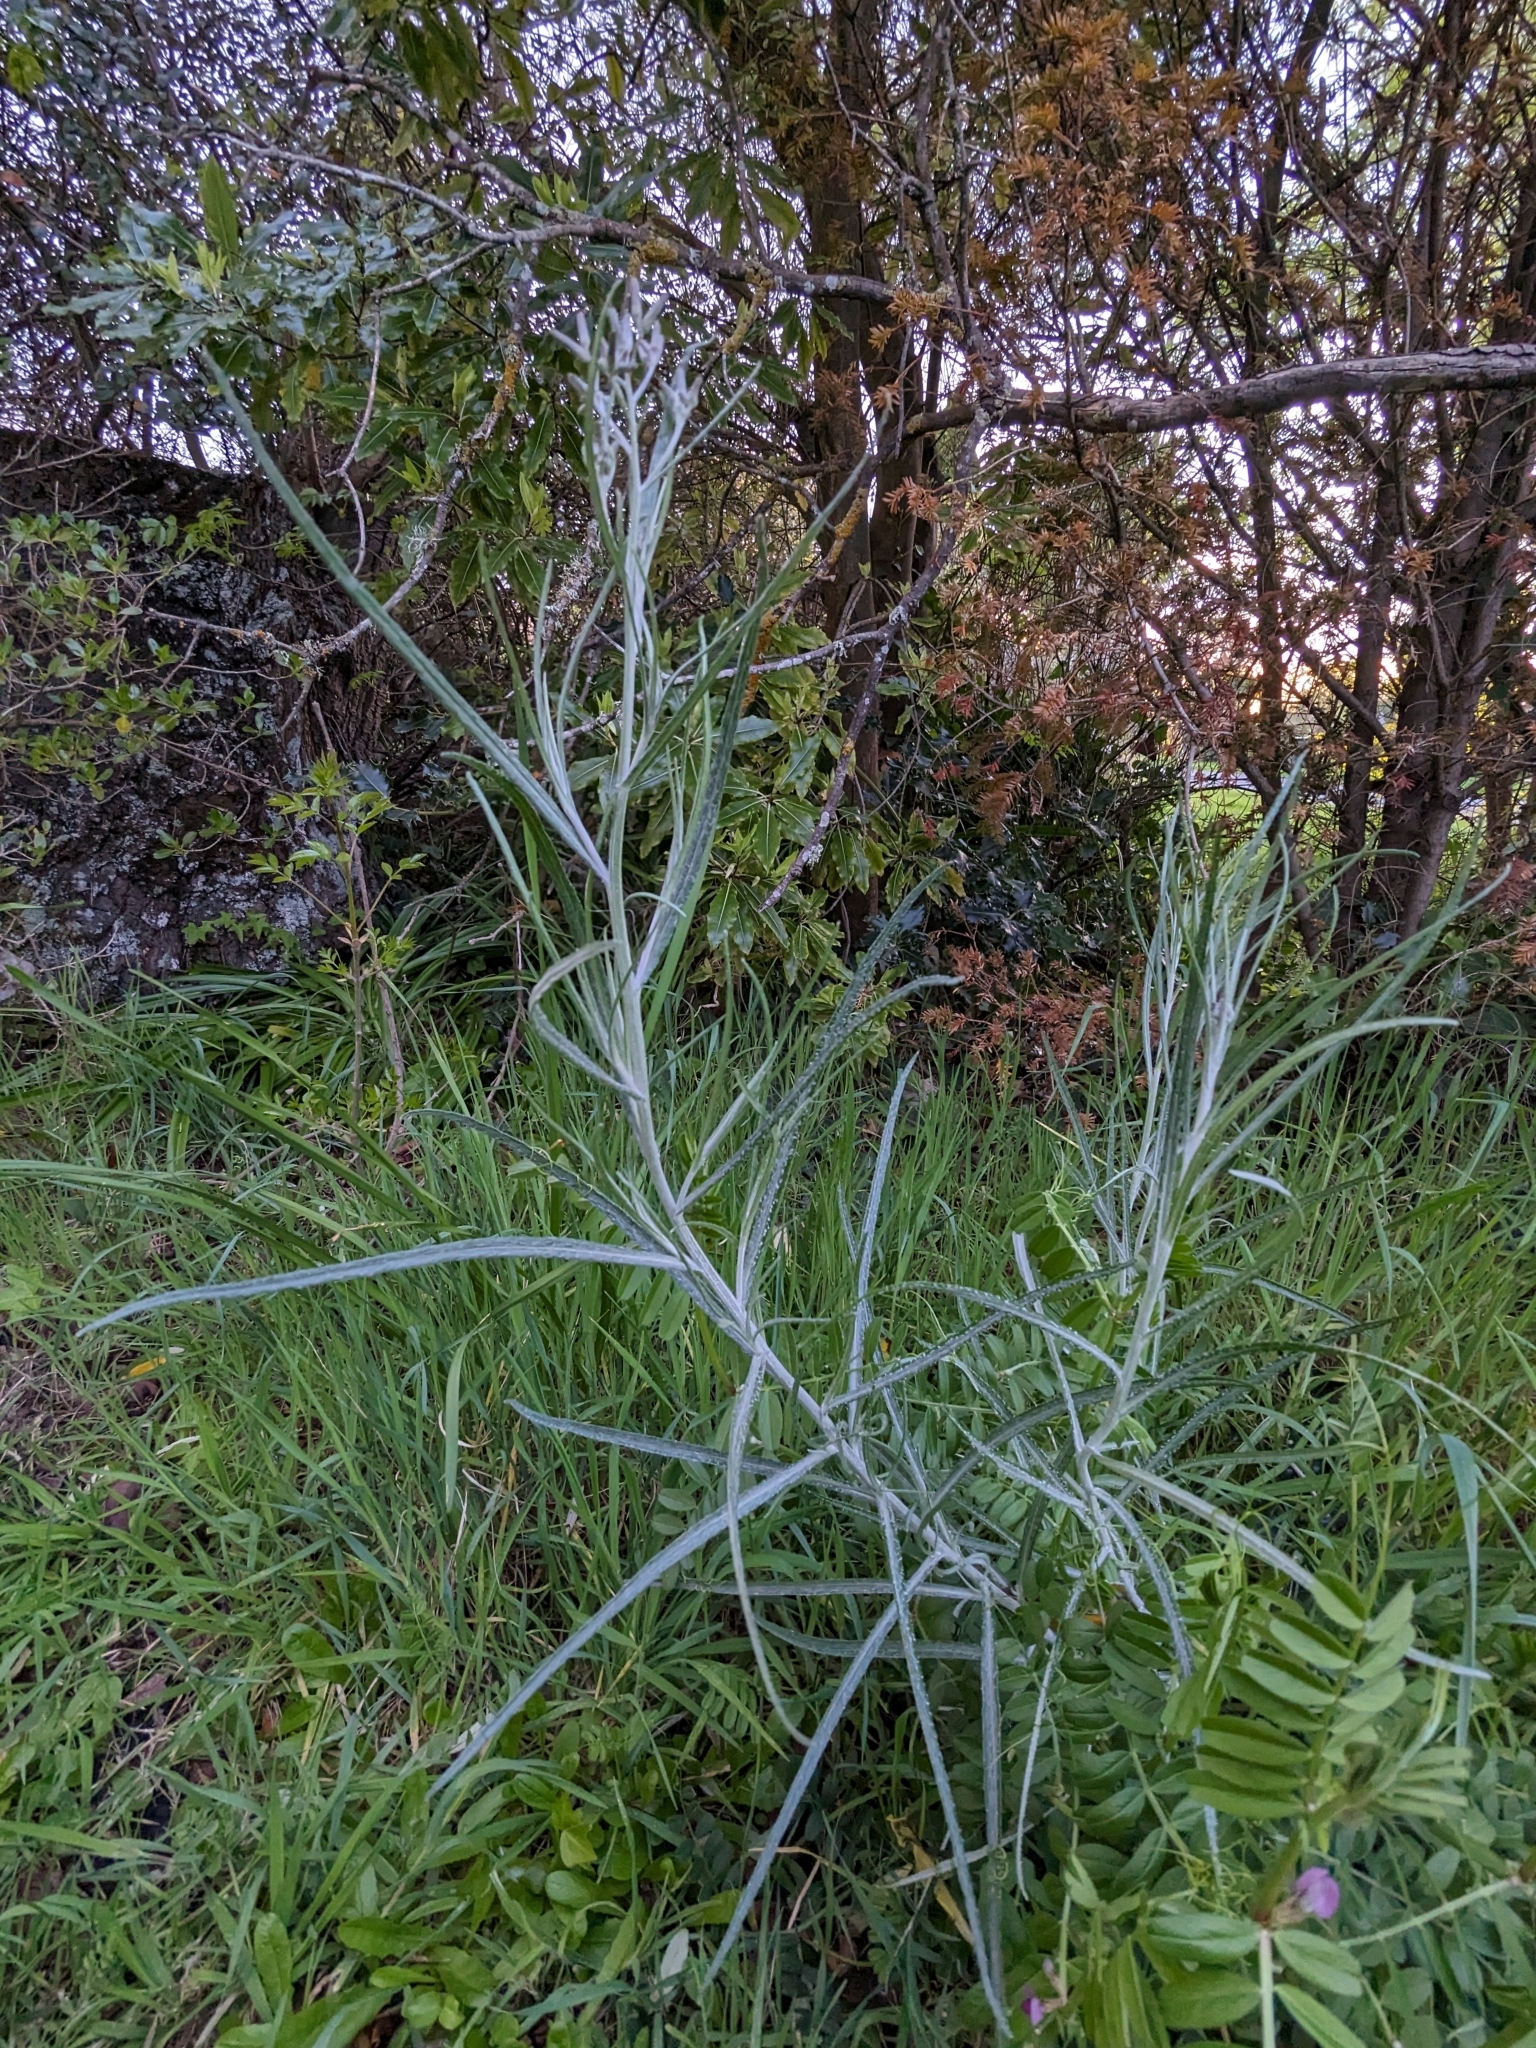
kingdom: Plantae
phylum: Tracheophyta
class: Magnoliopsida
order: Asterales
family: Asteraceae
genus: Senecio
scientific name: Senecio quadridentatus
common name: Cotton fireweed
